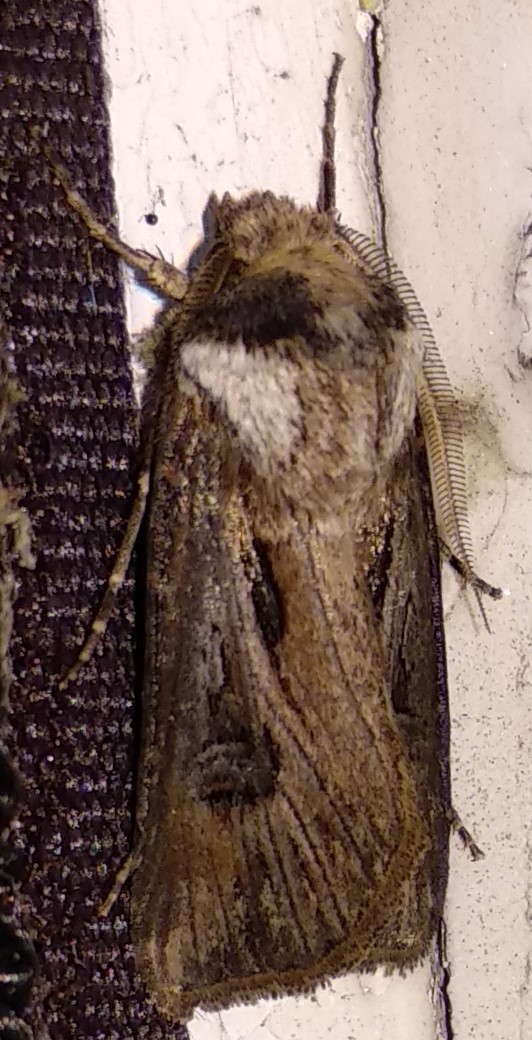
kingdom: Animalia
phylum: Arthropoda
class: Insecta
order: Lepidoptera
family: Noctuidae
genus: Agrotis
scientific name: Agrotis venerabilis
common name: Venerable dart
